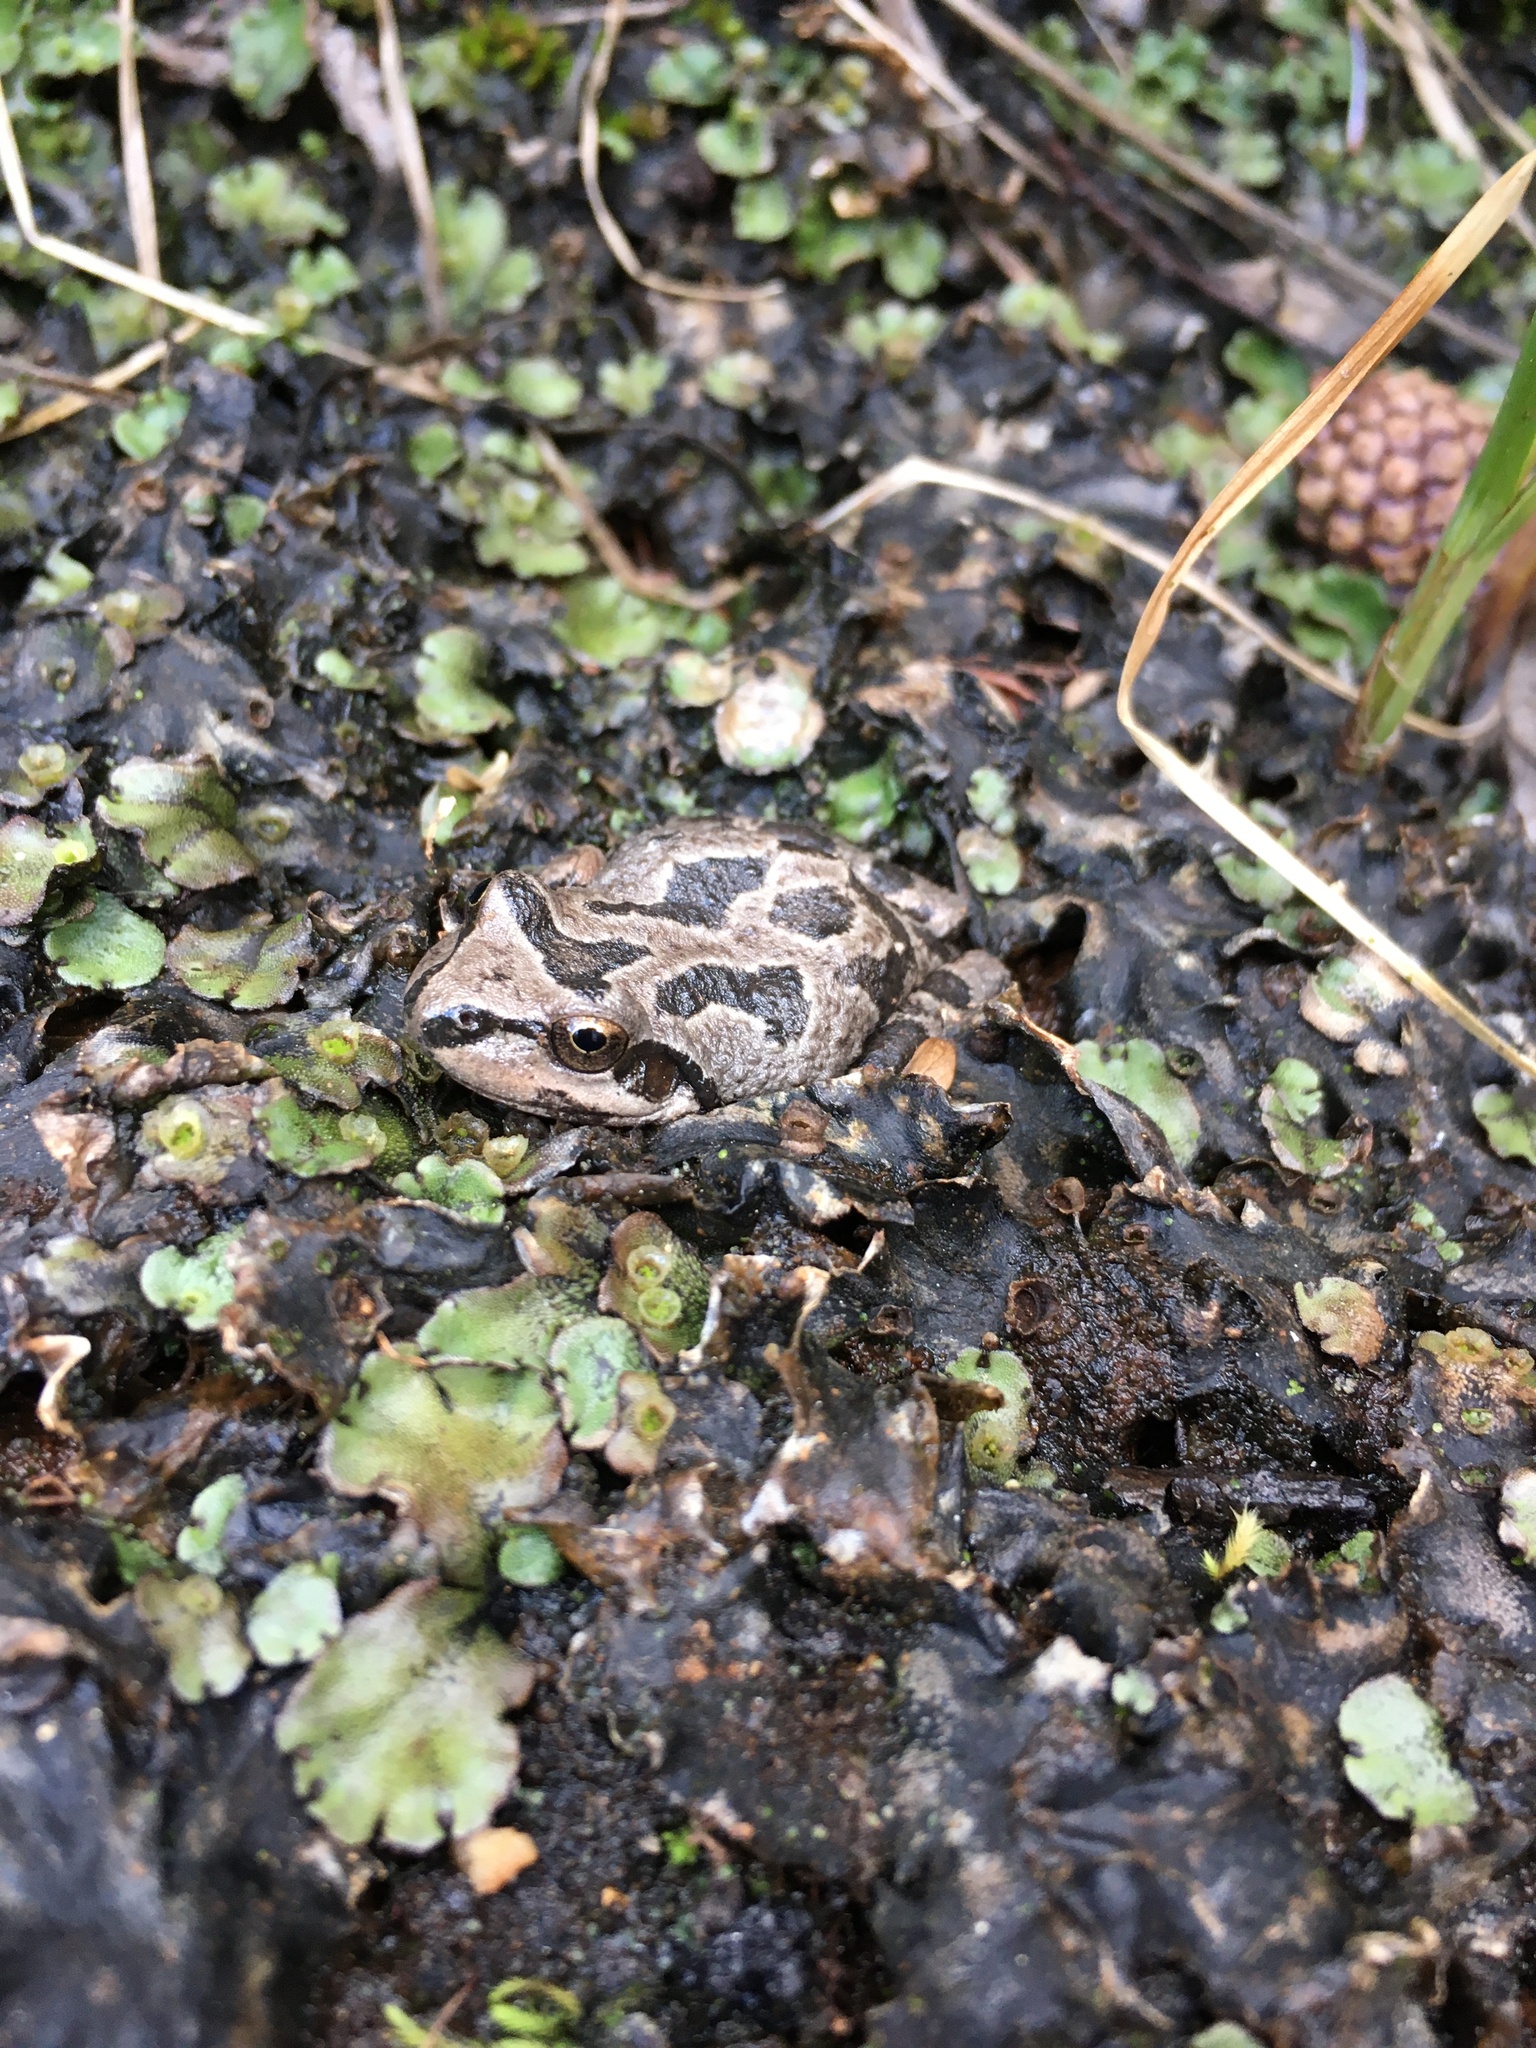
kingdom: Animalia
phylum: Chordata
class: Amphibia
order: Anura
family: Hylidae
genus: Pseudacris
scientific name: Pseudacris regilla
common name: Pacific chorus frog
